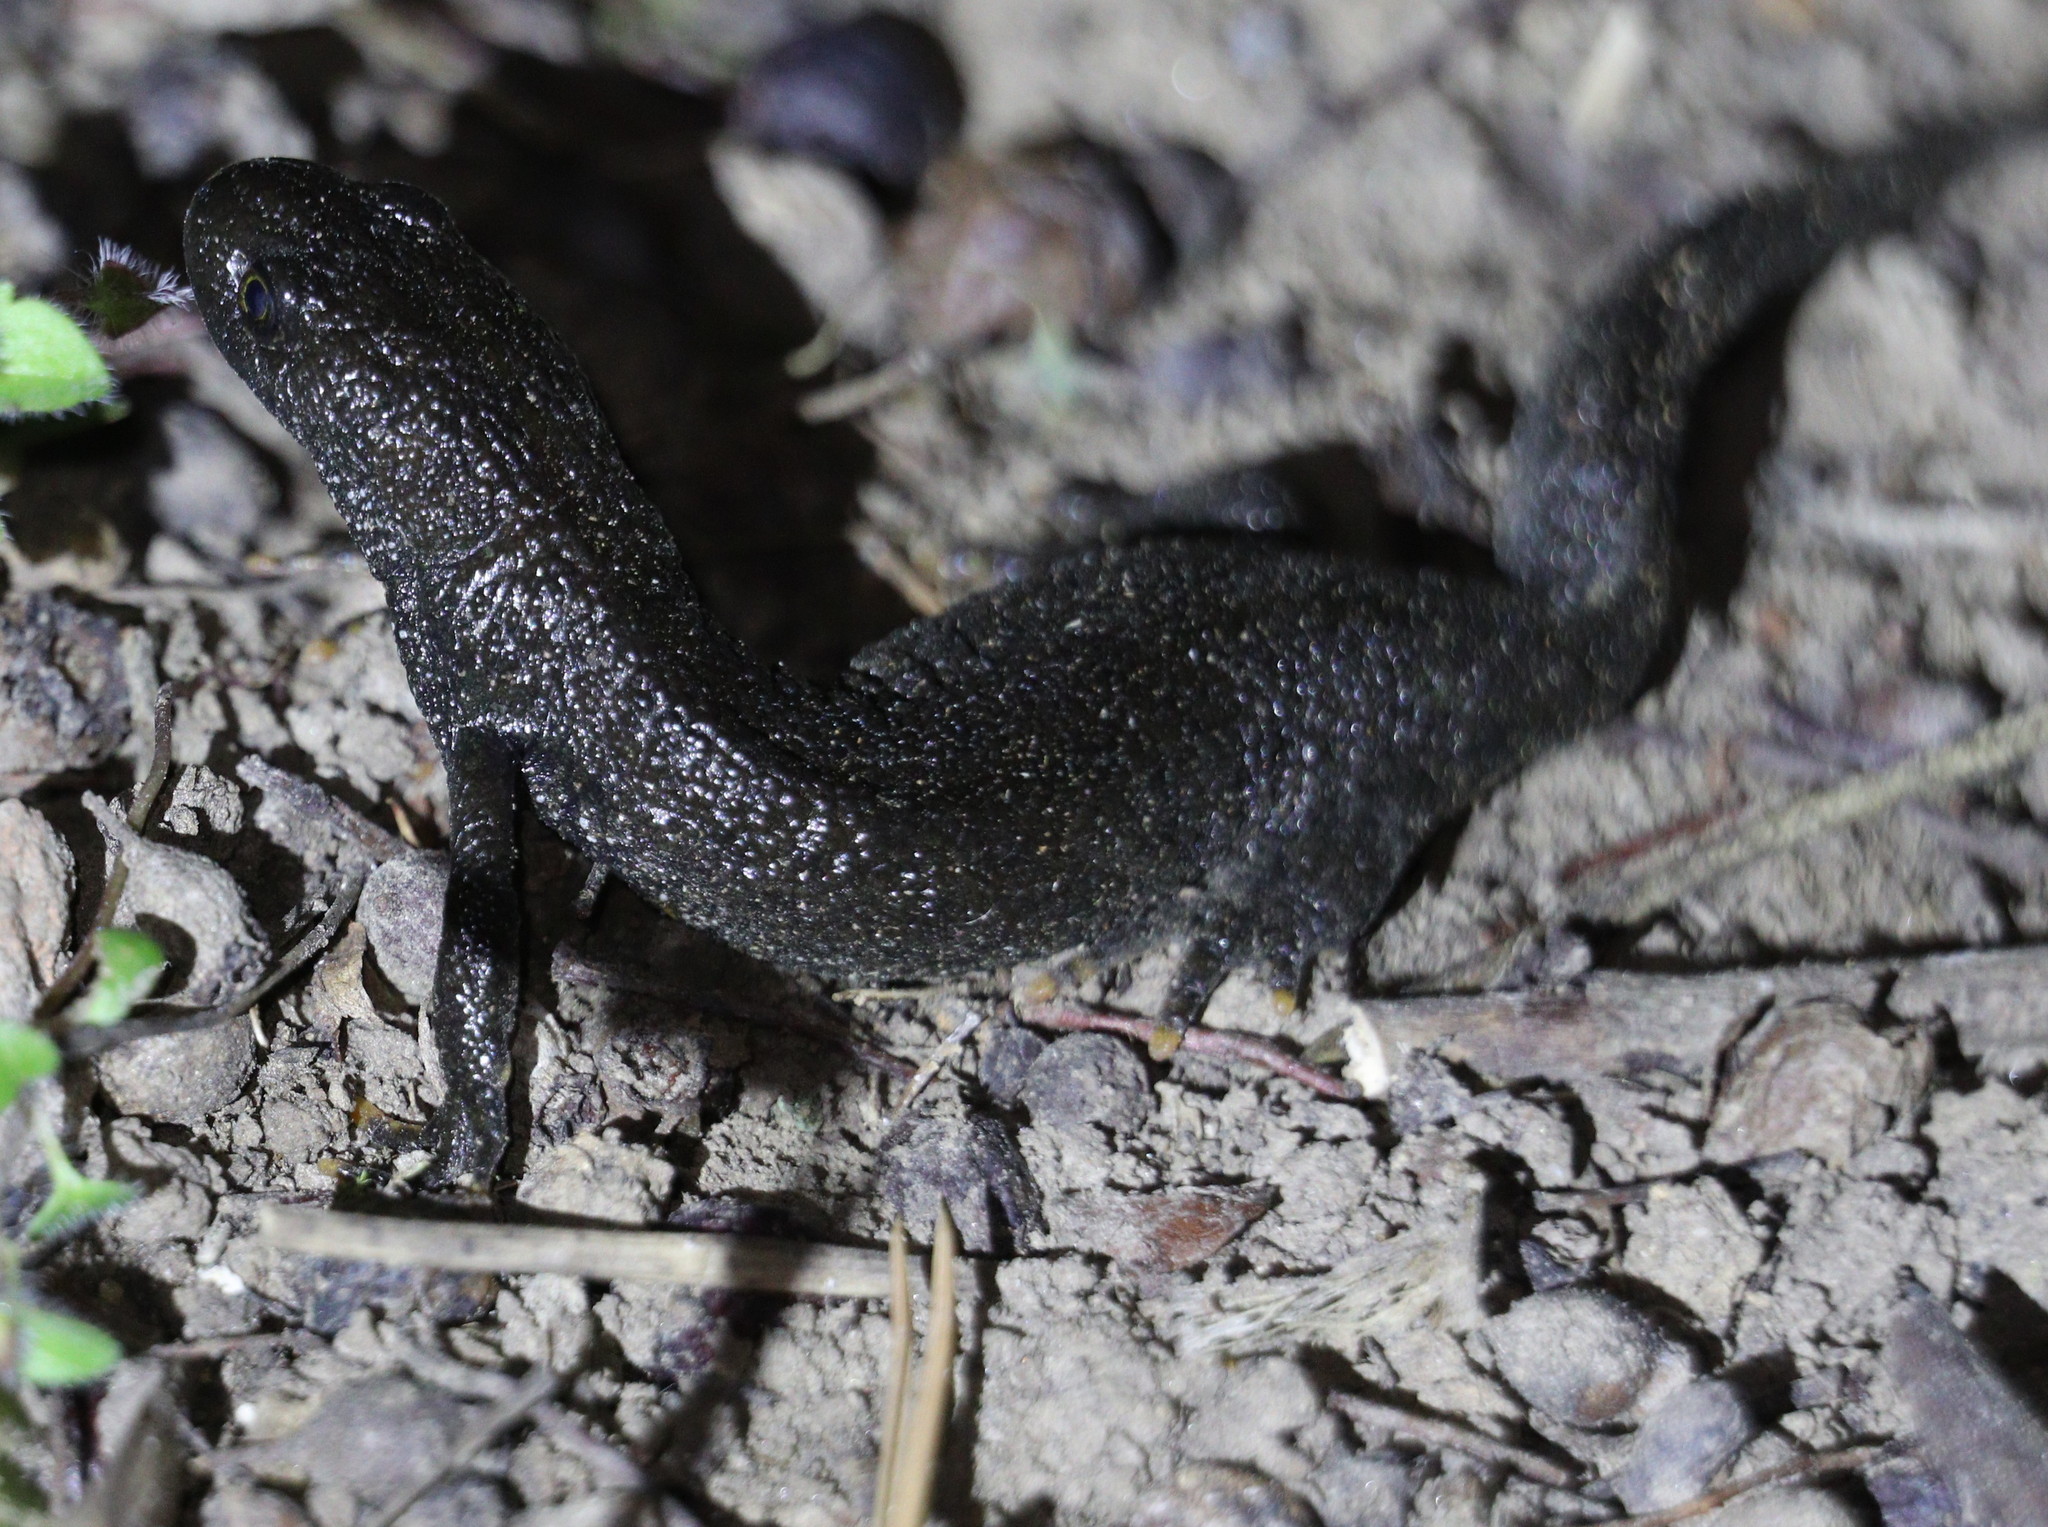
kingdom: Animalia
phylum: Chordata
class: Amphibia
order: Caudata
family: Salamandridae
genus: Triturus
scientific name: Triturus cristatus
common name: Crested newt
